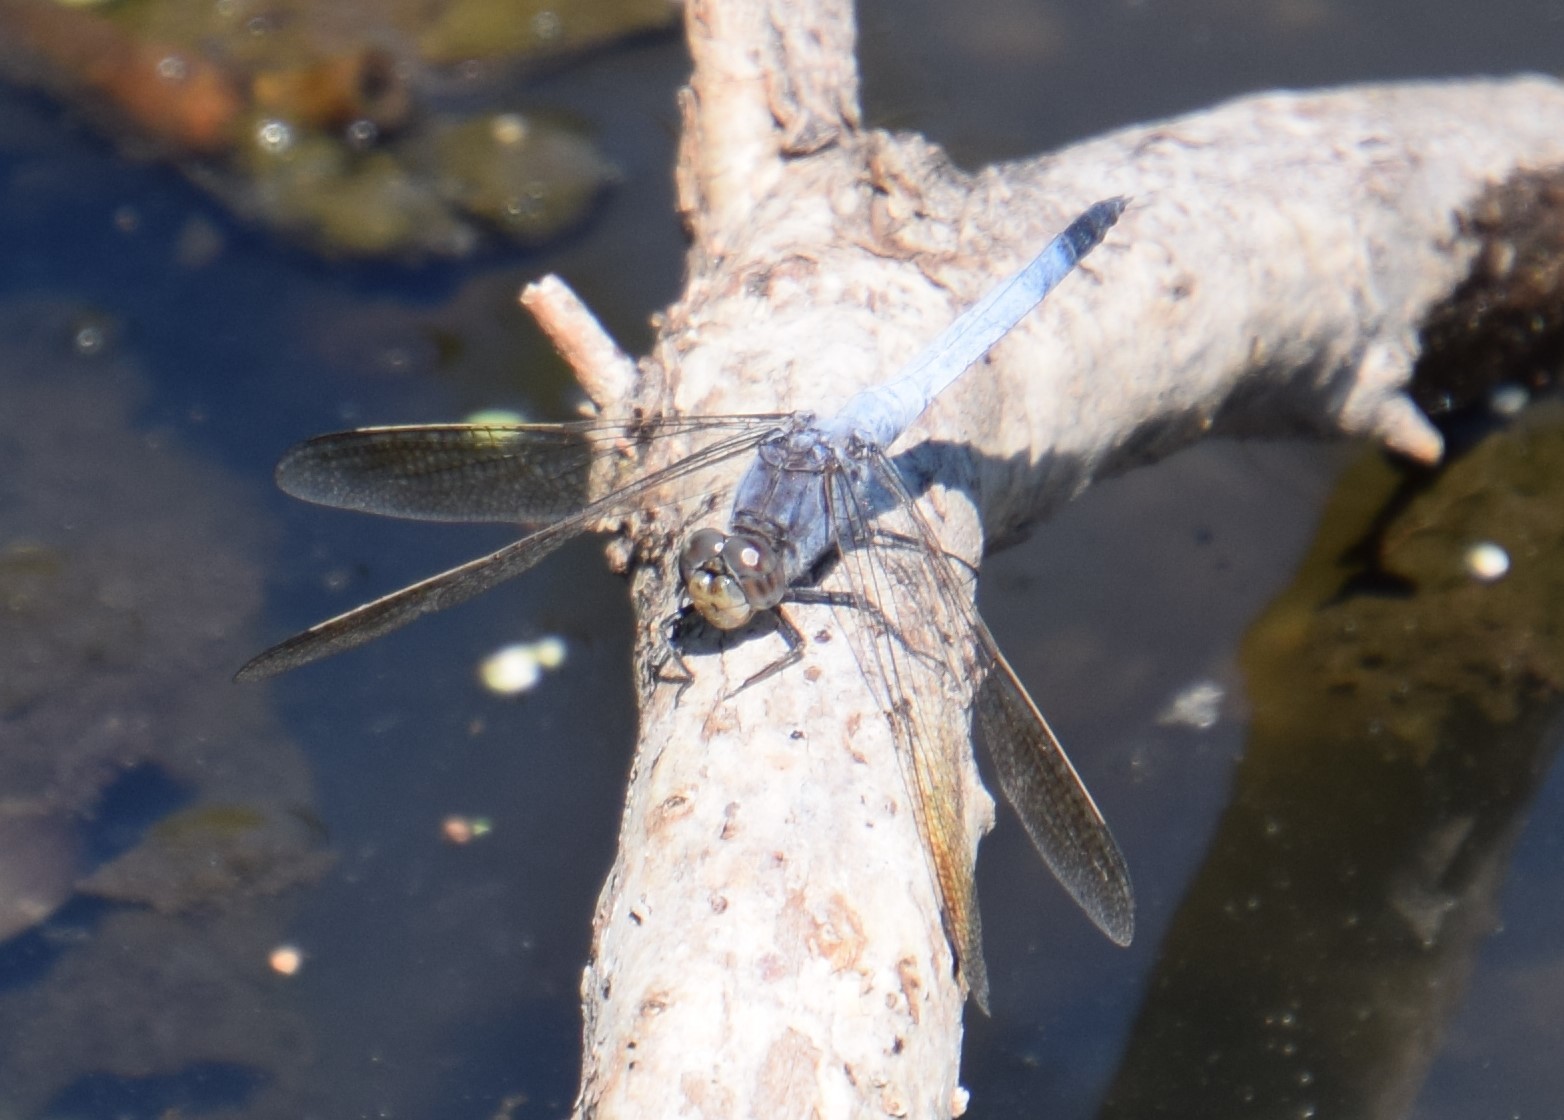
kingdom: Animalia
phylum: Arthropoda
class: Insecta
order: Odonata
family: Libellulidae
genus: Orthetrum
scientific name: Orthetrum caledonicum
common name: Blue skimmer
